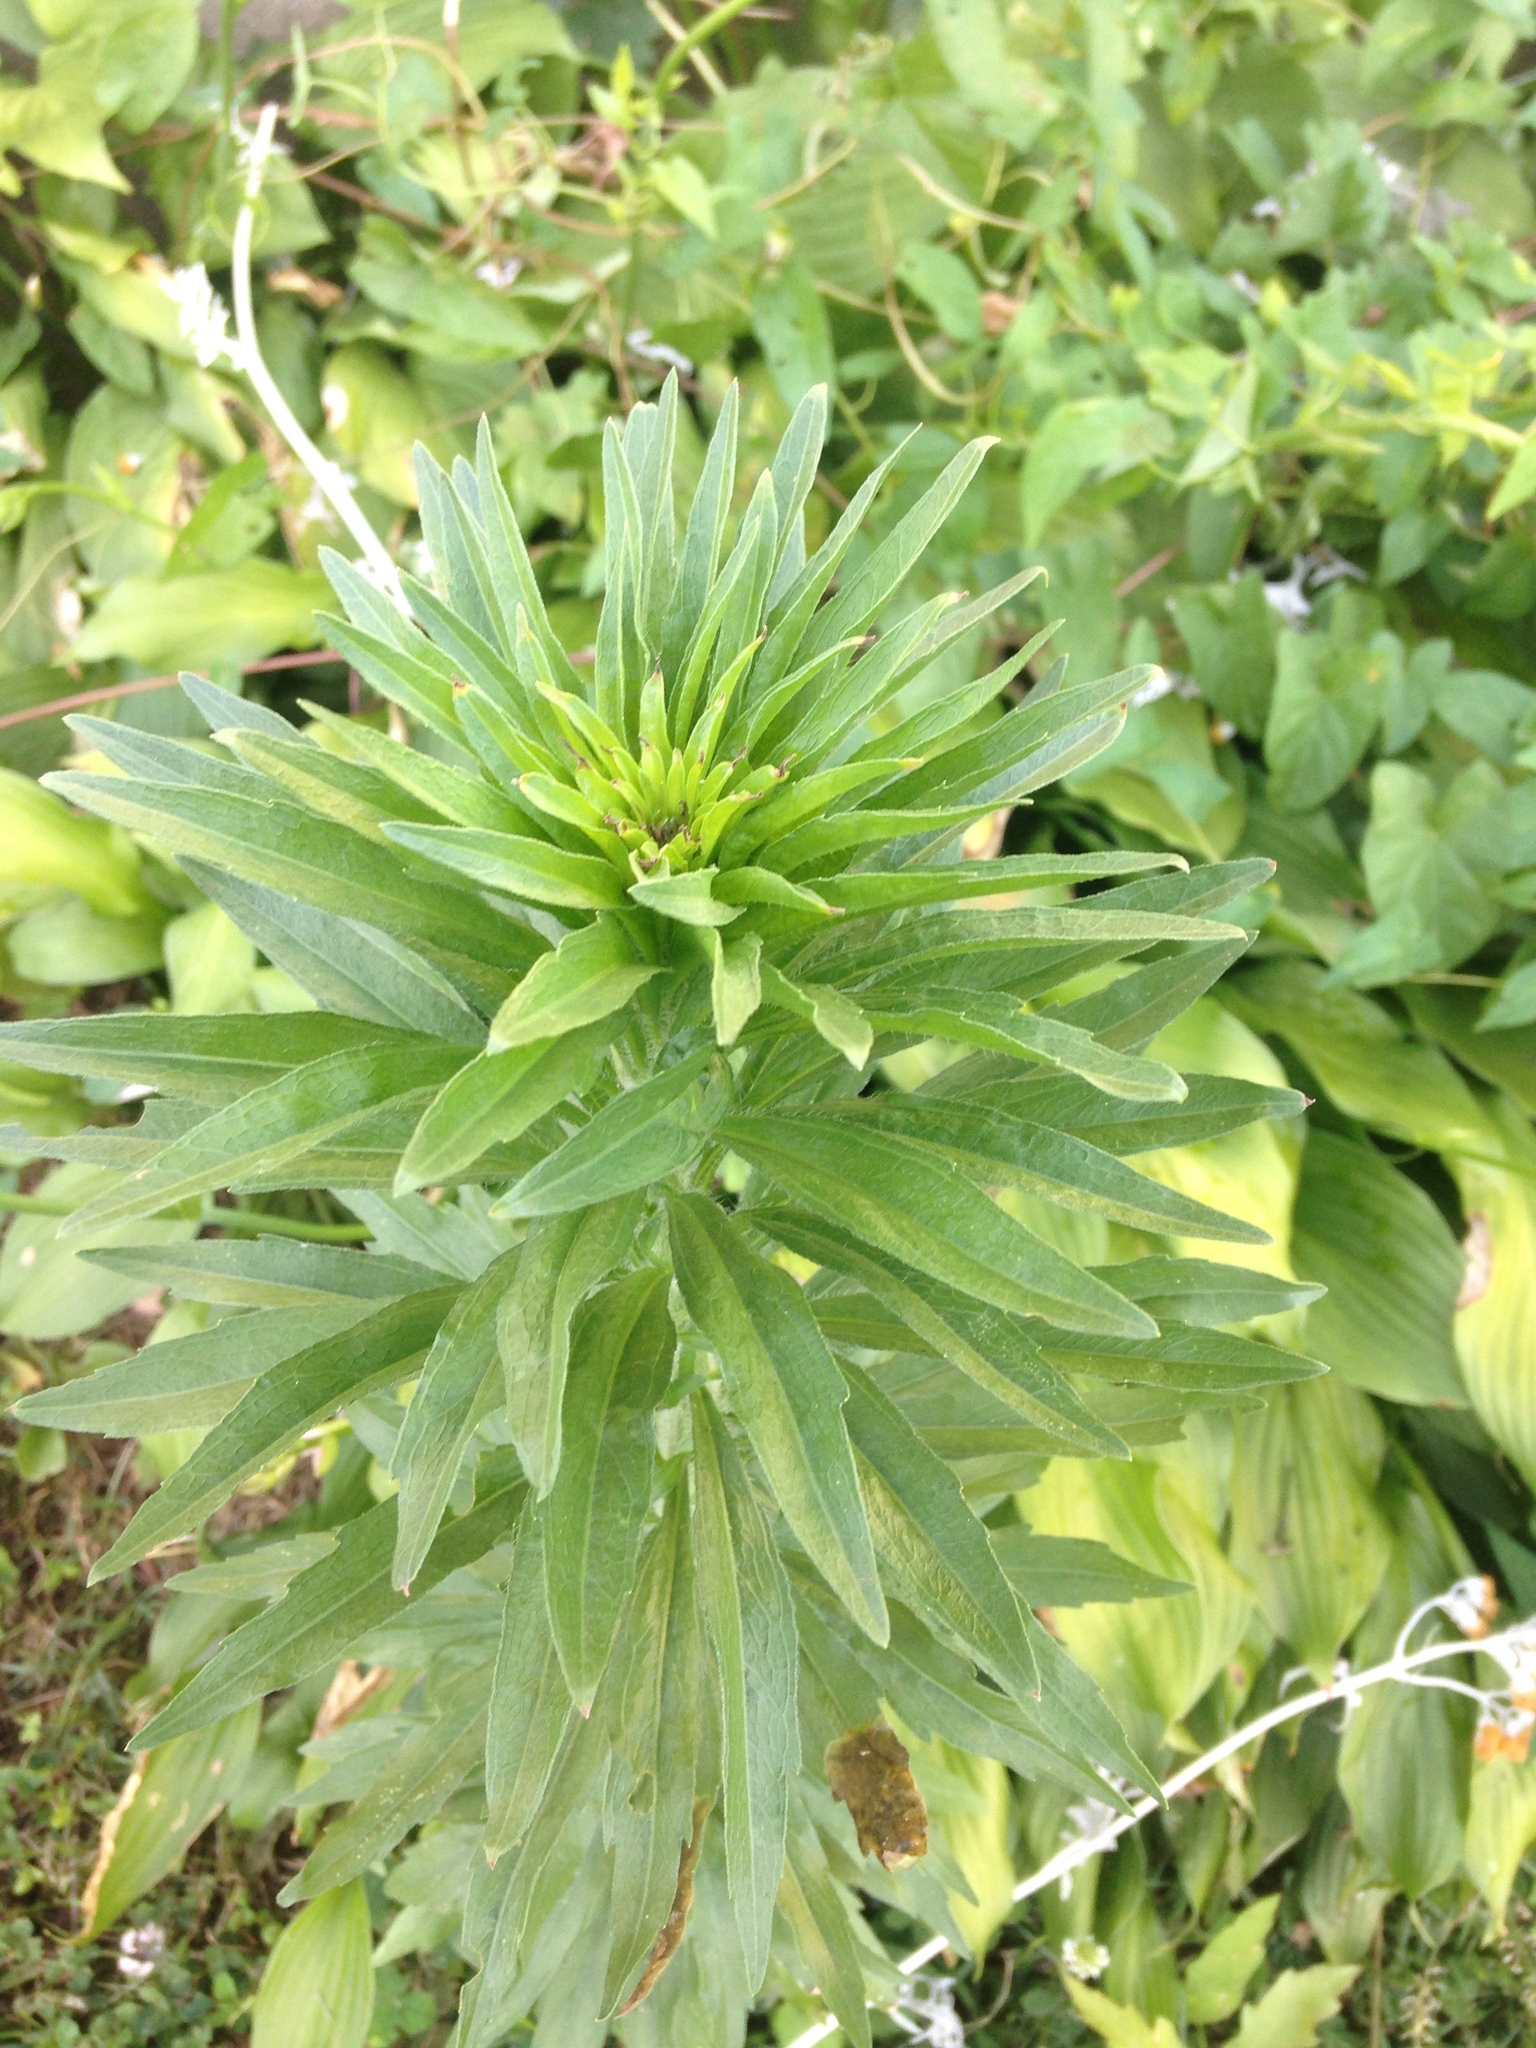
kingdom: Plantae
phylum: Tracheophyta
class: Magnoliopsida
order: Asterales
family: Asteraceae
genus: Erigeron
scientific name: Erigeron canadensis
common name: Canadian fleabane
